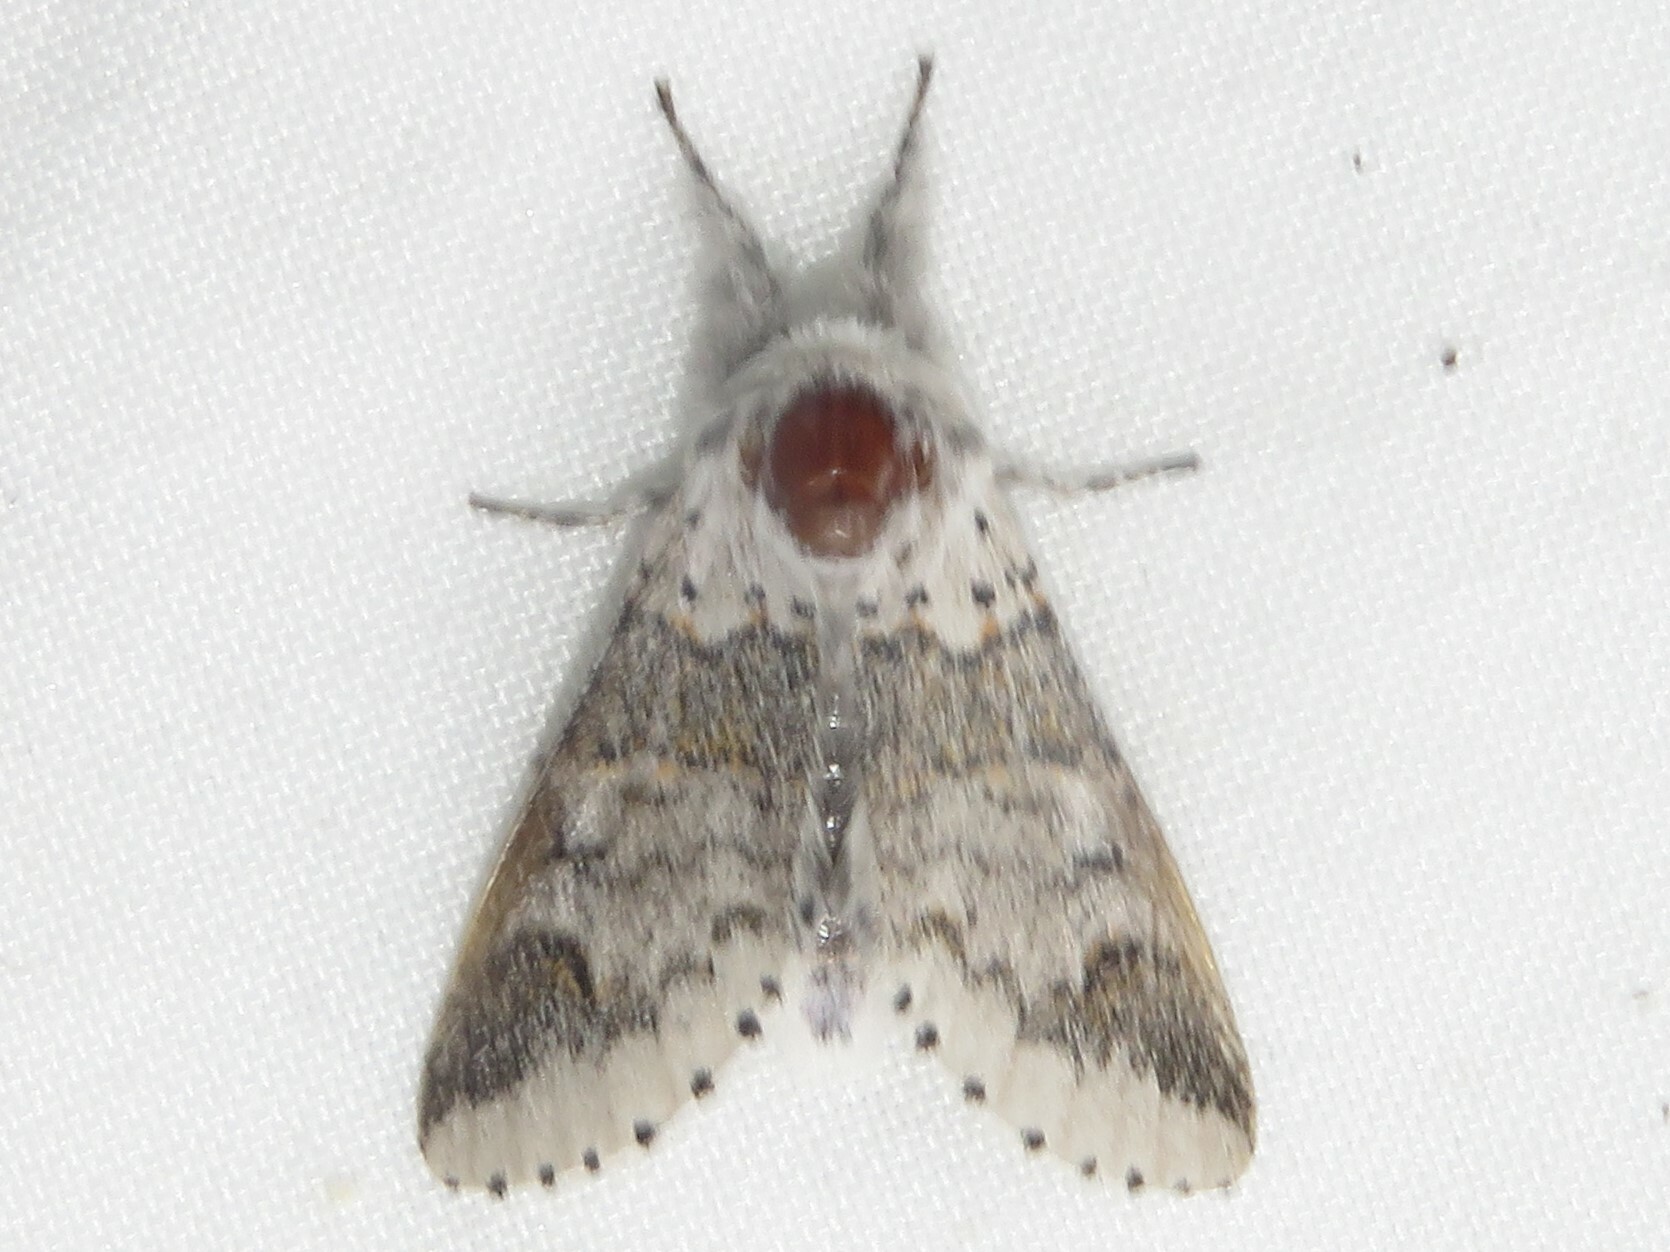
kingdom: Animalia
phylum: Arthropoda
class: Insecta
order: Lepidoptera
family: Notodontidae
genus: Furcula
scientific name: Furcula occidentalis
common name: Western furcula moth
